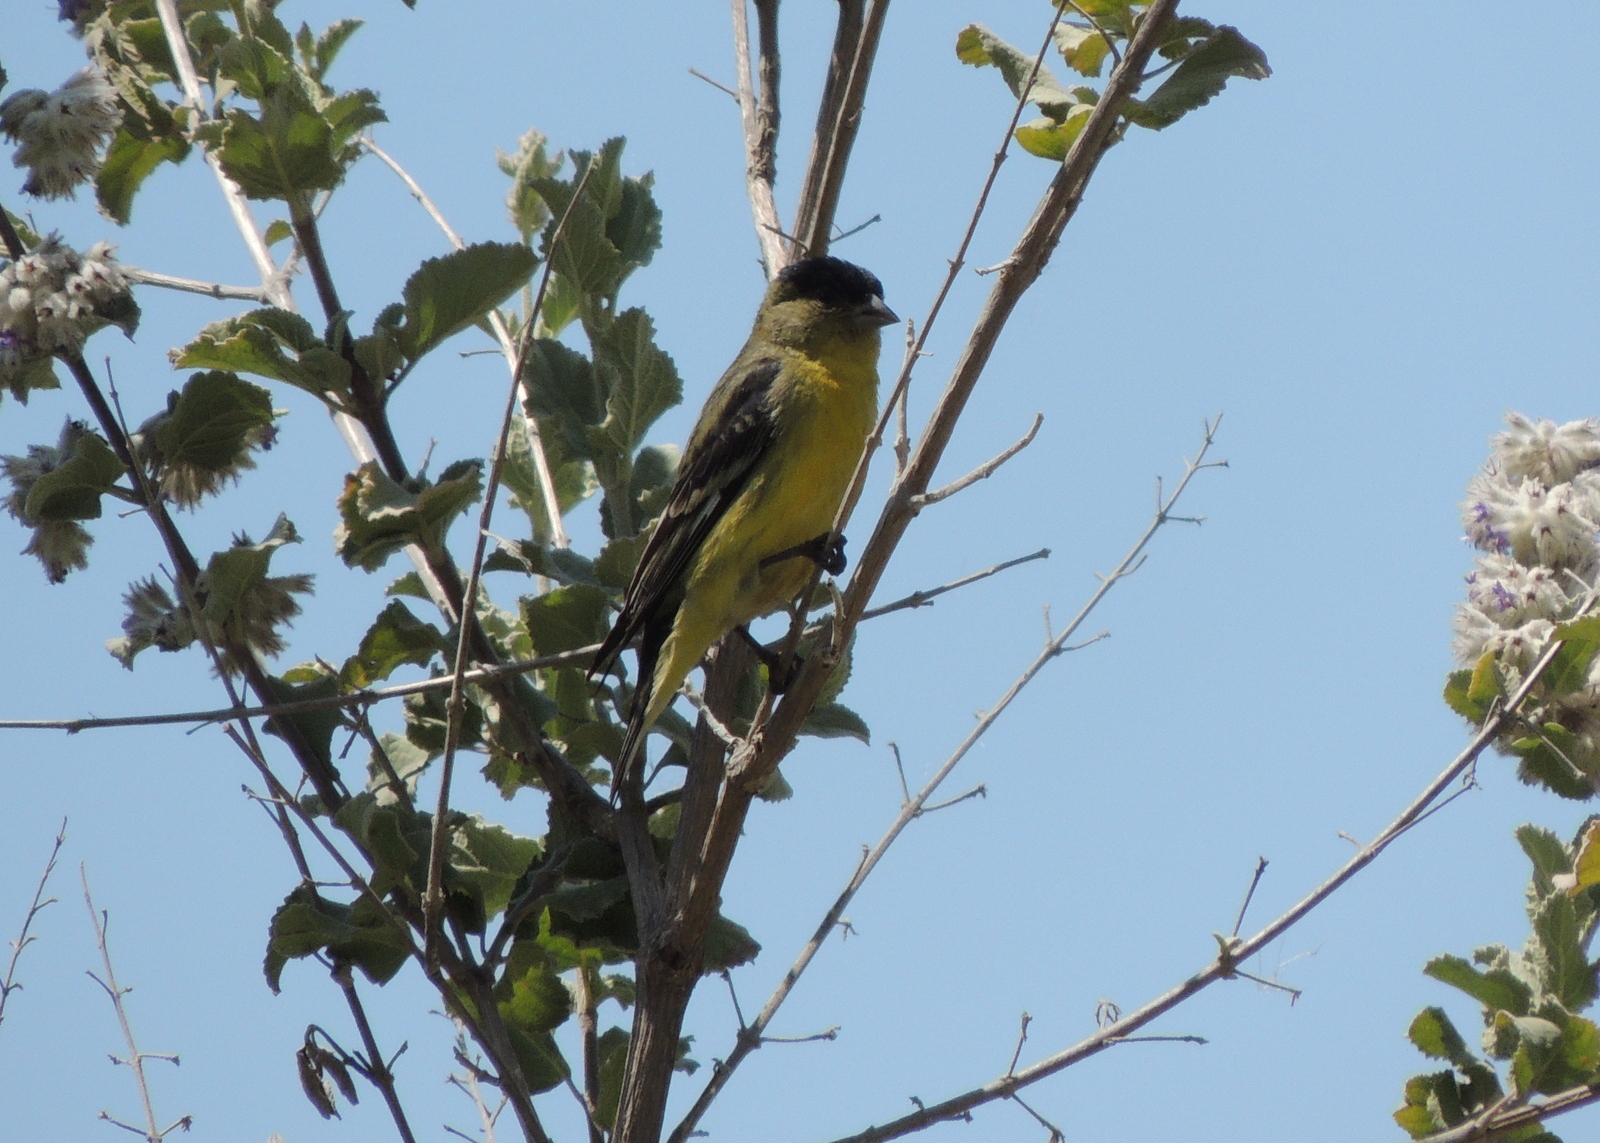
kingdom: Animalia
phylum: Chordata
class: Aves
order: Passeriformes
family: Fringillidae
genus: Spinus
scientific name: Spinus psaltria
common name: Lesser goldfinch
